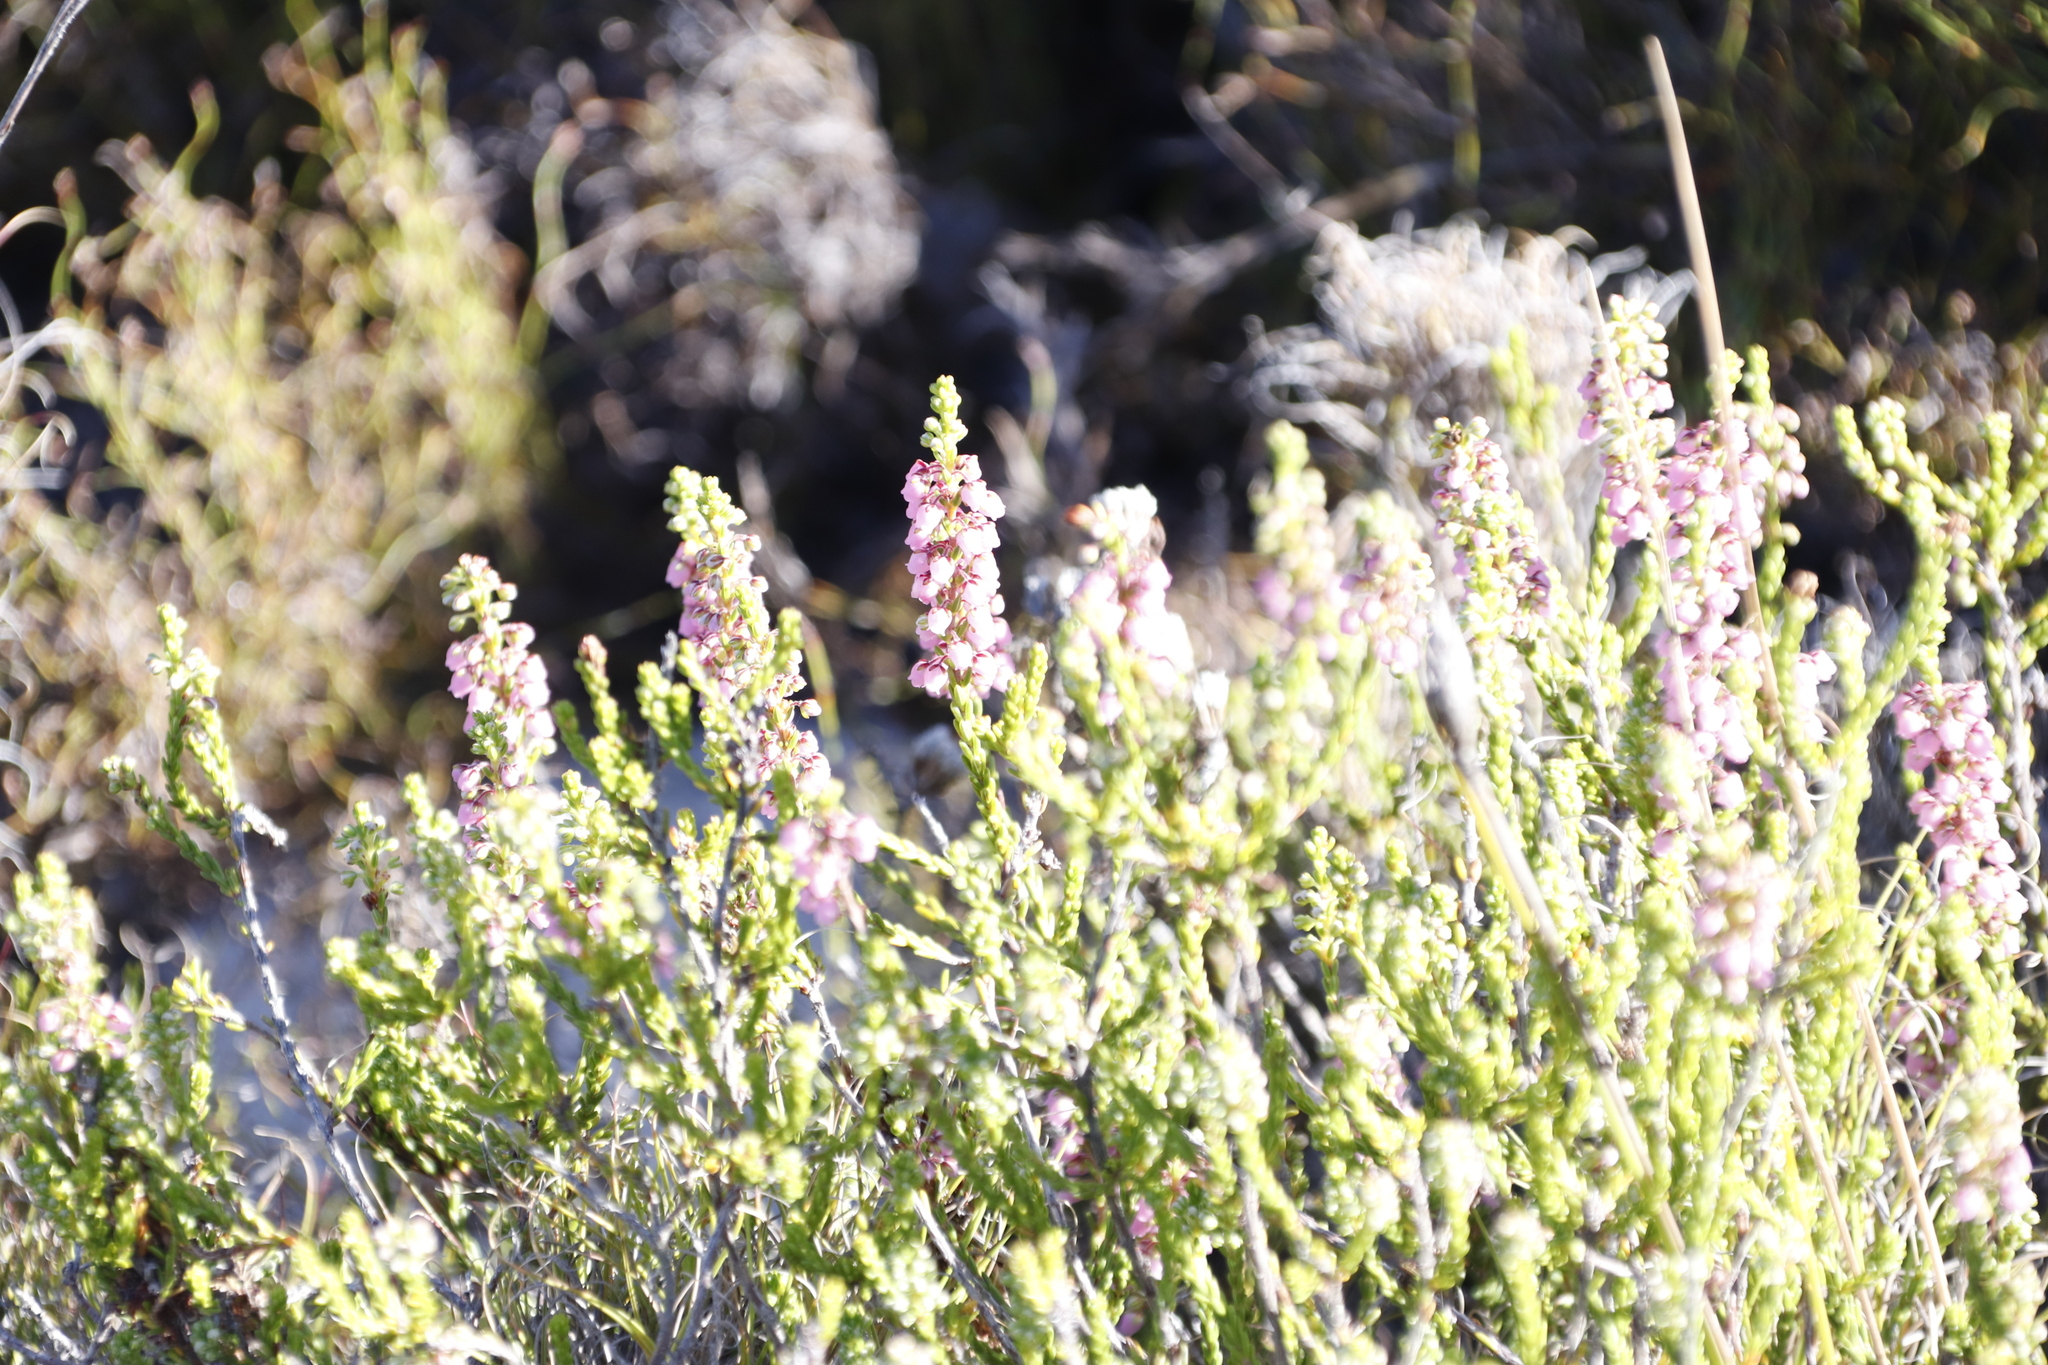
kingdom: Plantae
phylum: Tracheophyta
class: Magnoliopsida
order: Ericales
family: Ericaceae
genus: Erica
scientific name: Erica pulchella
